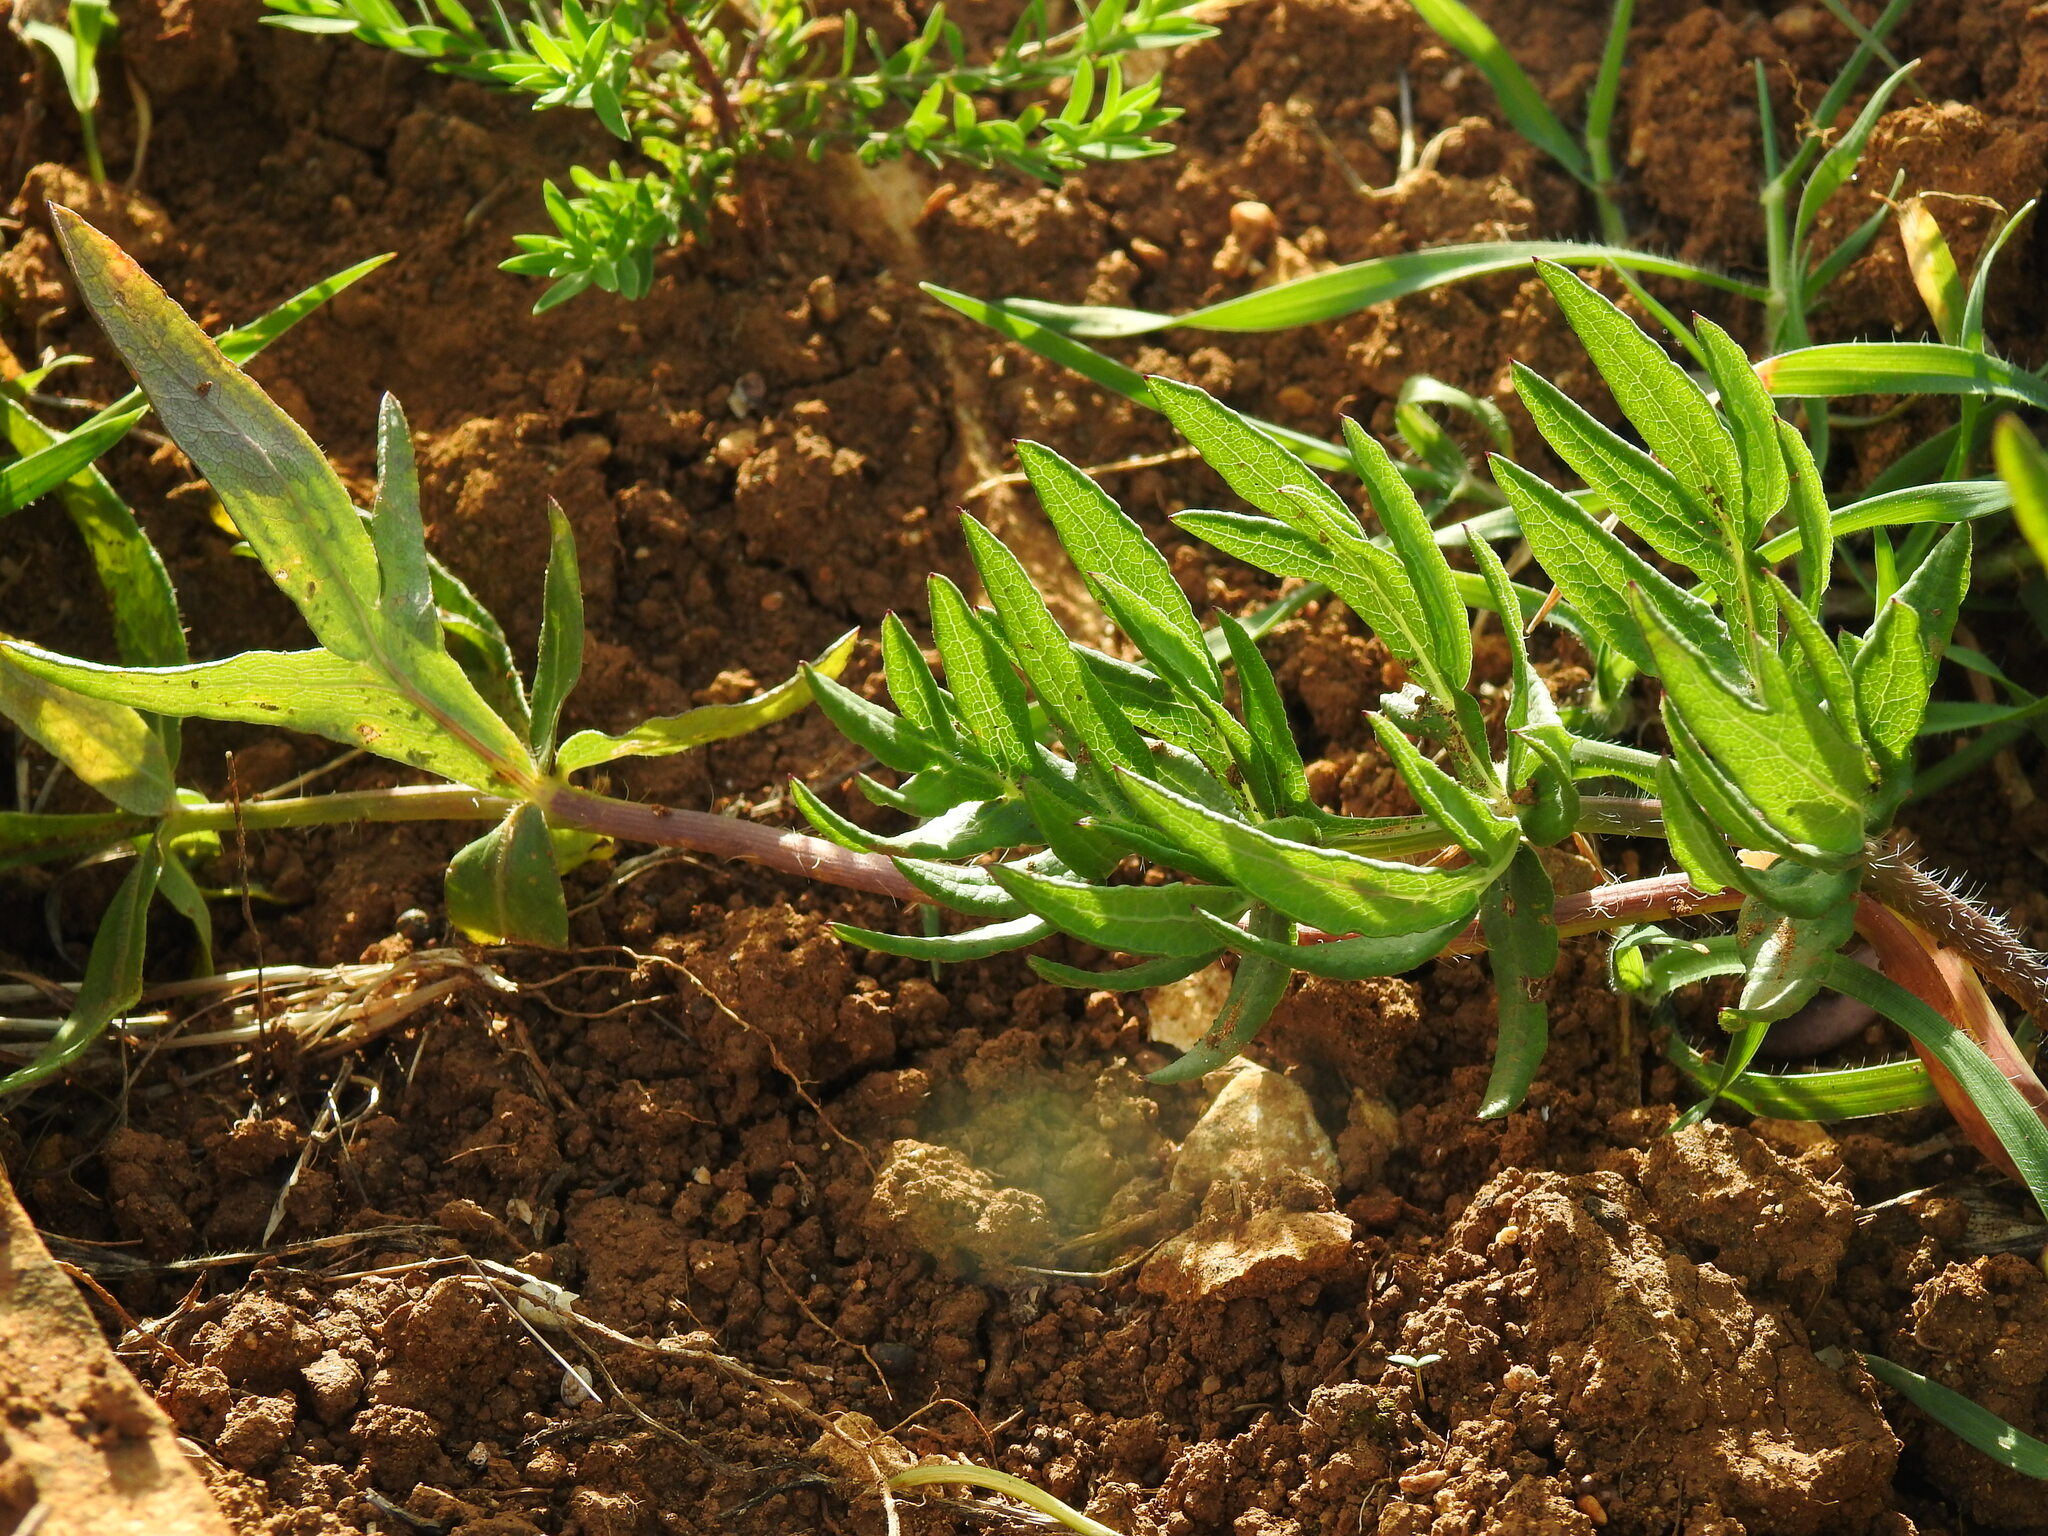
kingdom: Plantae
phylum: Tracheophyta
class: Magnoliopsida
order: Apiales
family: Apiaceae
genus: Thapsia
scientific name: Thapsia transtagana
